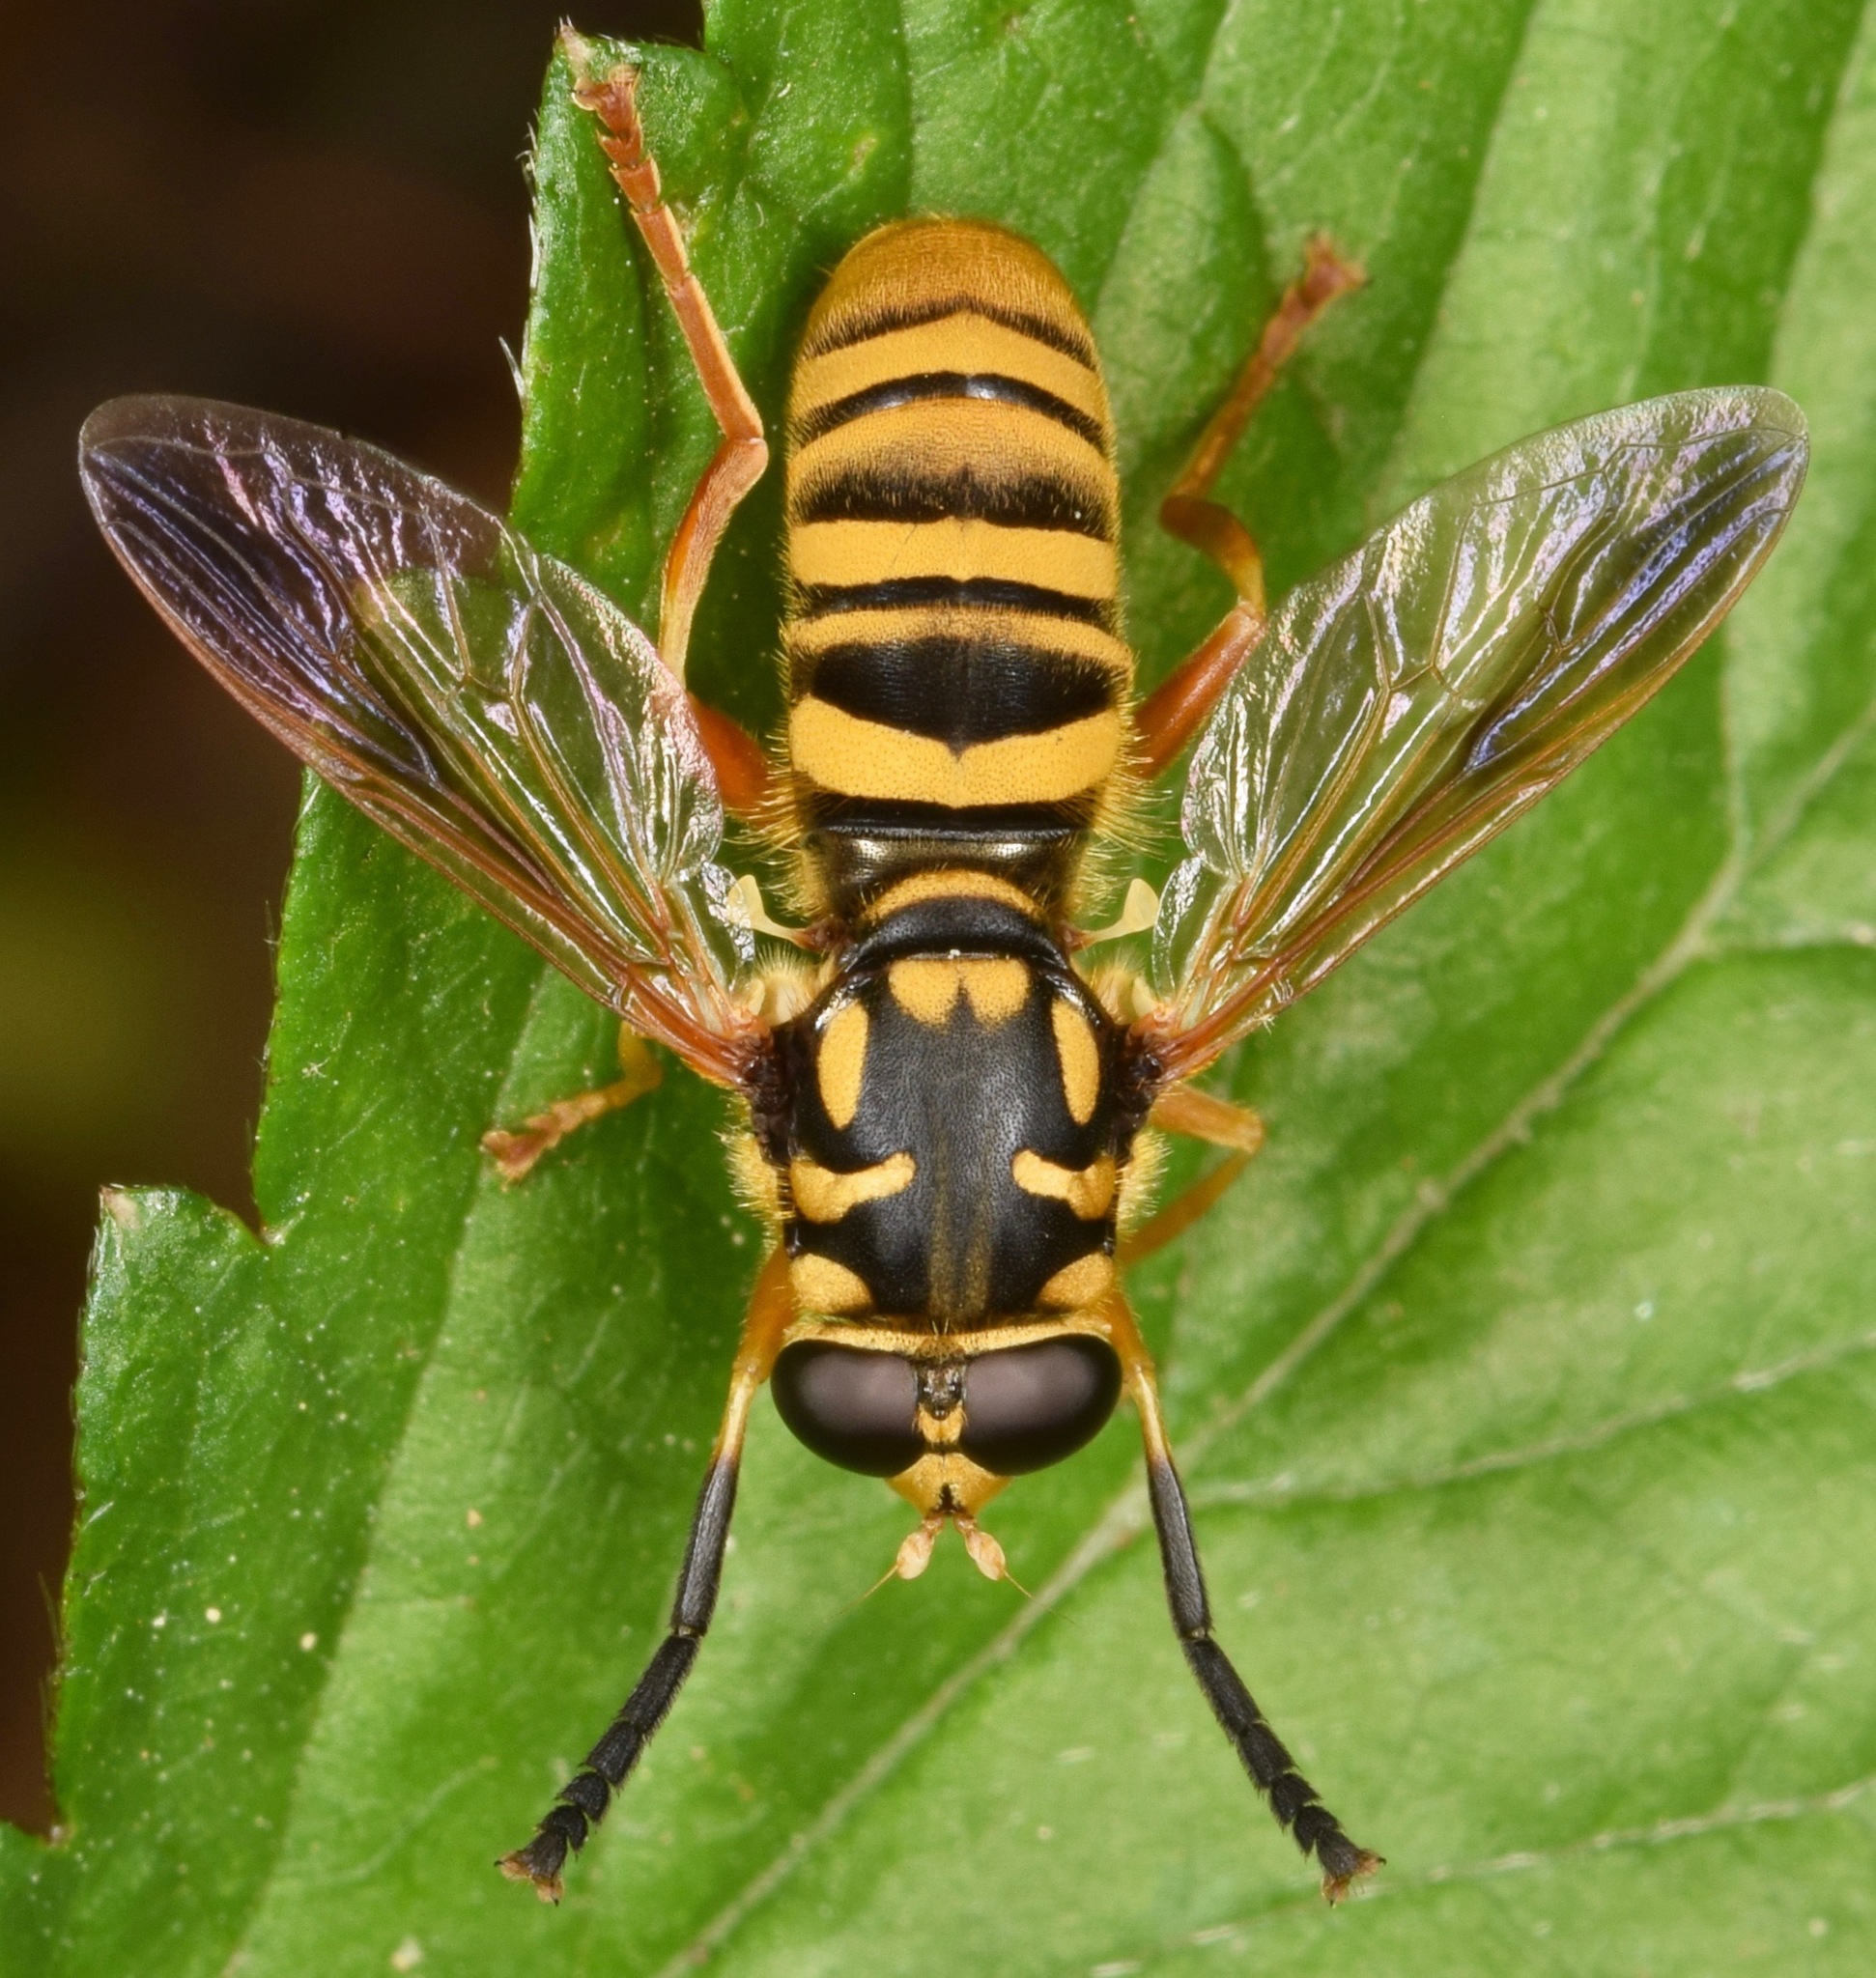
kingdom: Animalia
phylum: Arthropoda
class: Insecta
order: Diptera
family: Syrphidae
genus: Temnostoma
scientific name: Temnostoma daochum
